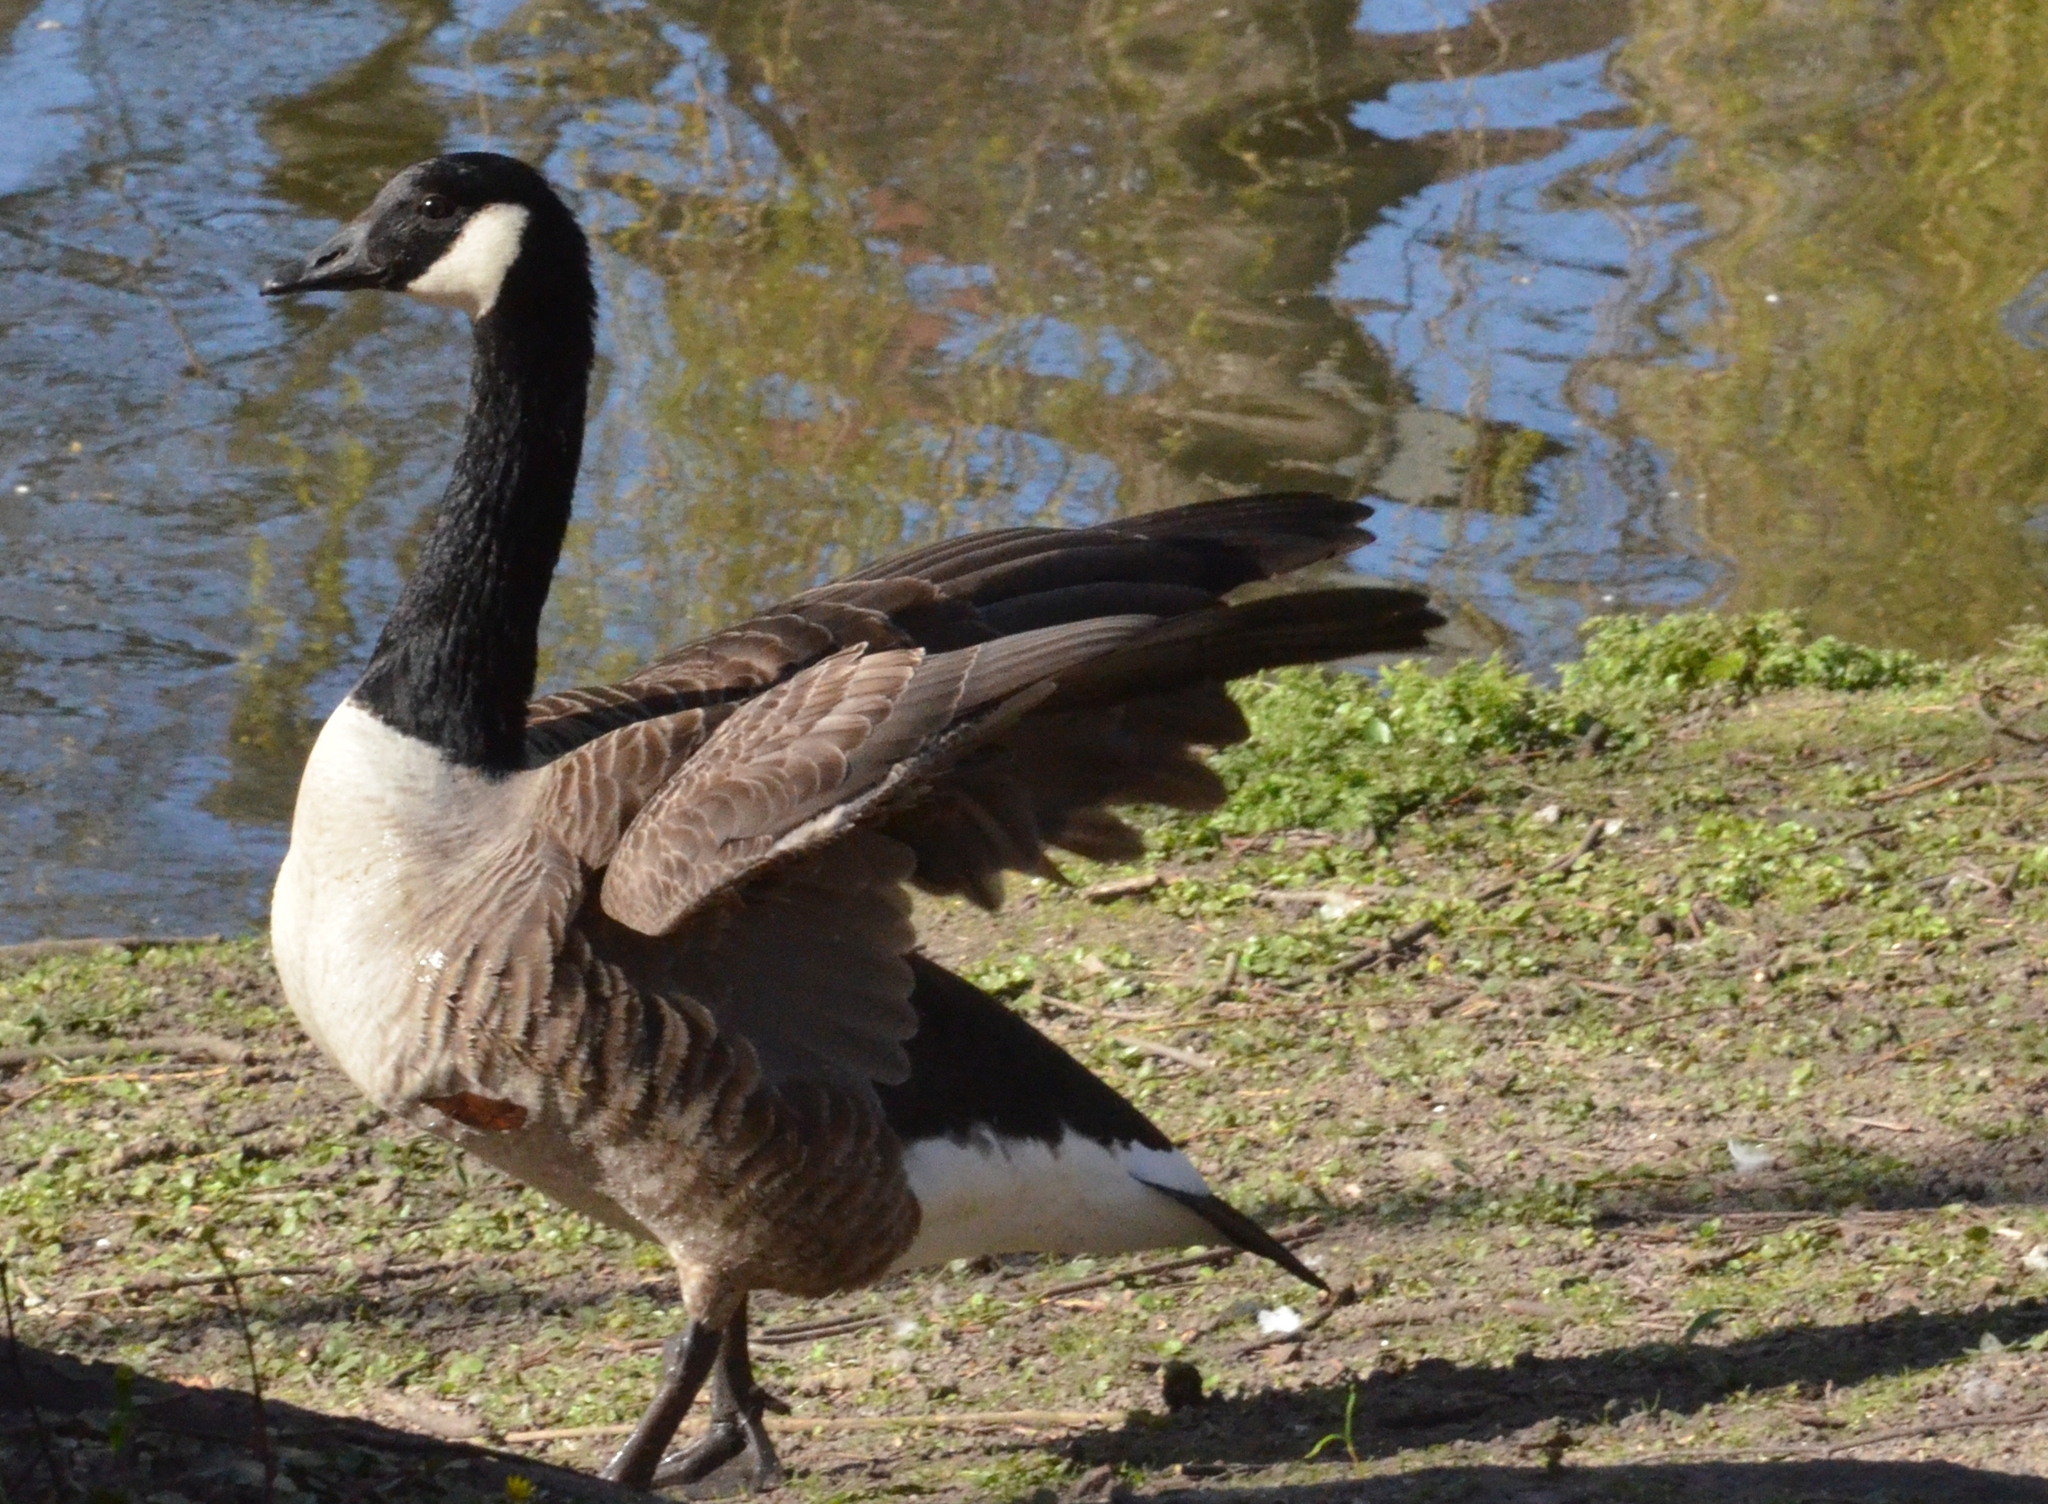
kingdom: Animalia
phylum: Chordata
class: Aves
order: Anseriformes
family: Anatidae
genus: Branta
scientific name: Branta canadensis
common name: Canada goose
